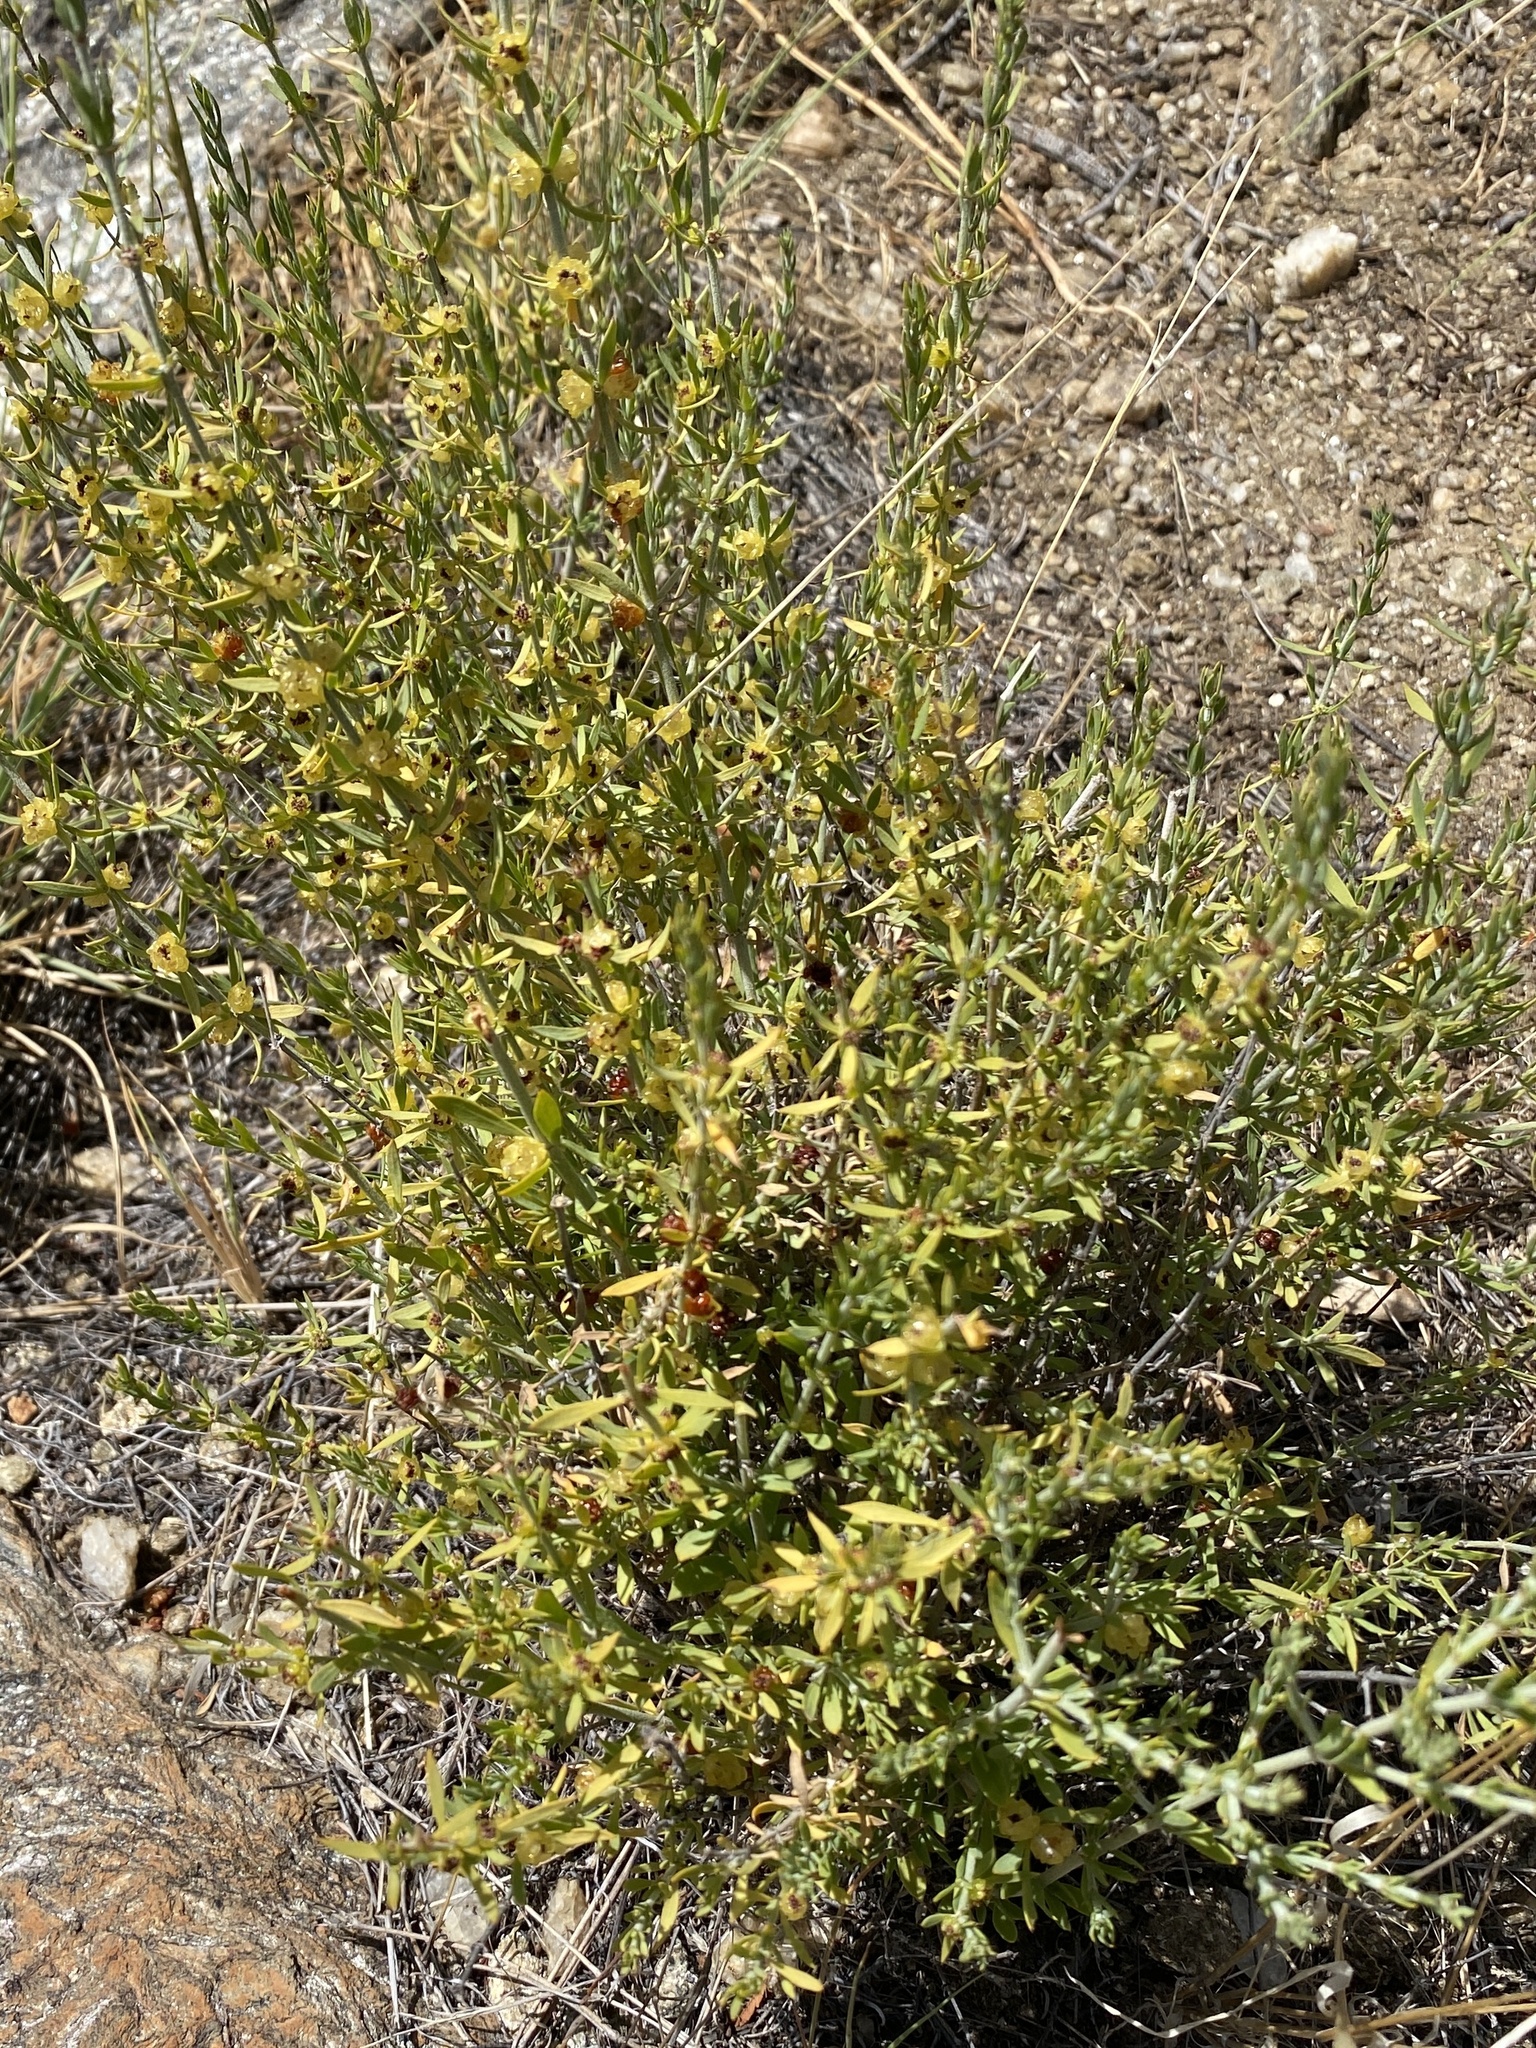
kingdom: Plantae
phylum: Tracheophyta
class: Magnoliopsida
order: Caryophyllales
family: Caryophyllaceae
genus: Pollichia
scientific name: Pollichia campestris
